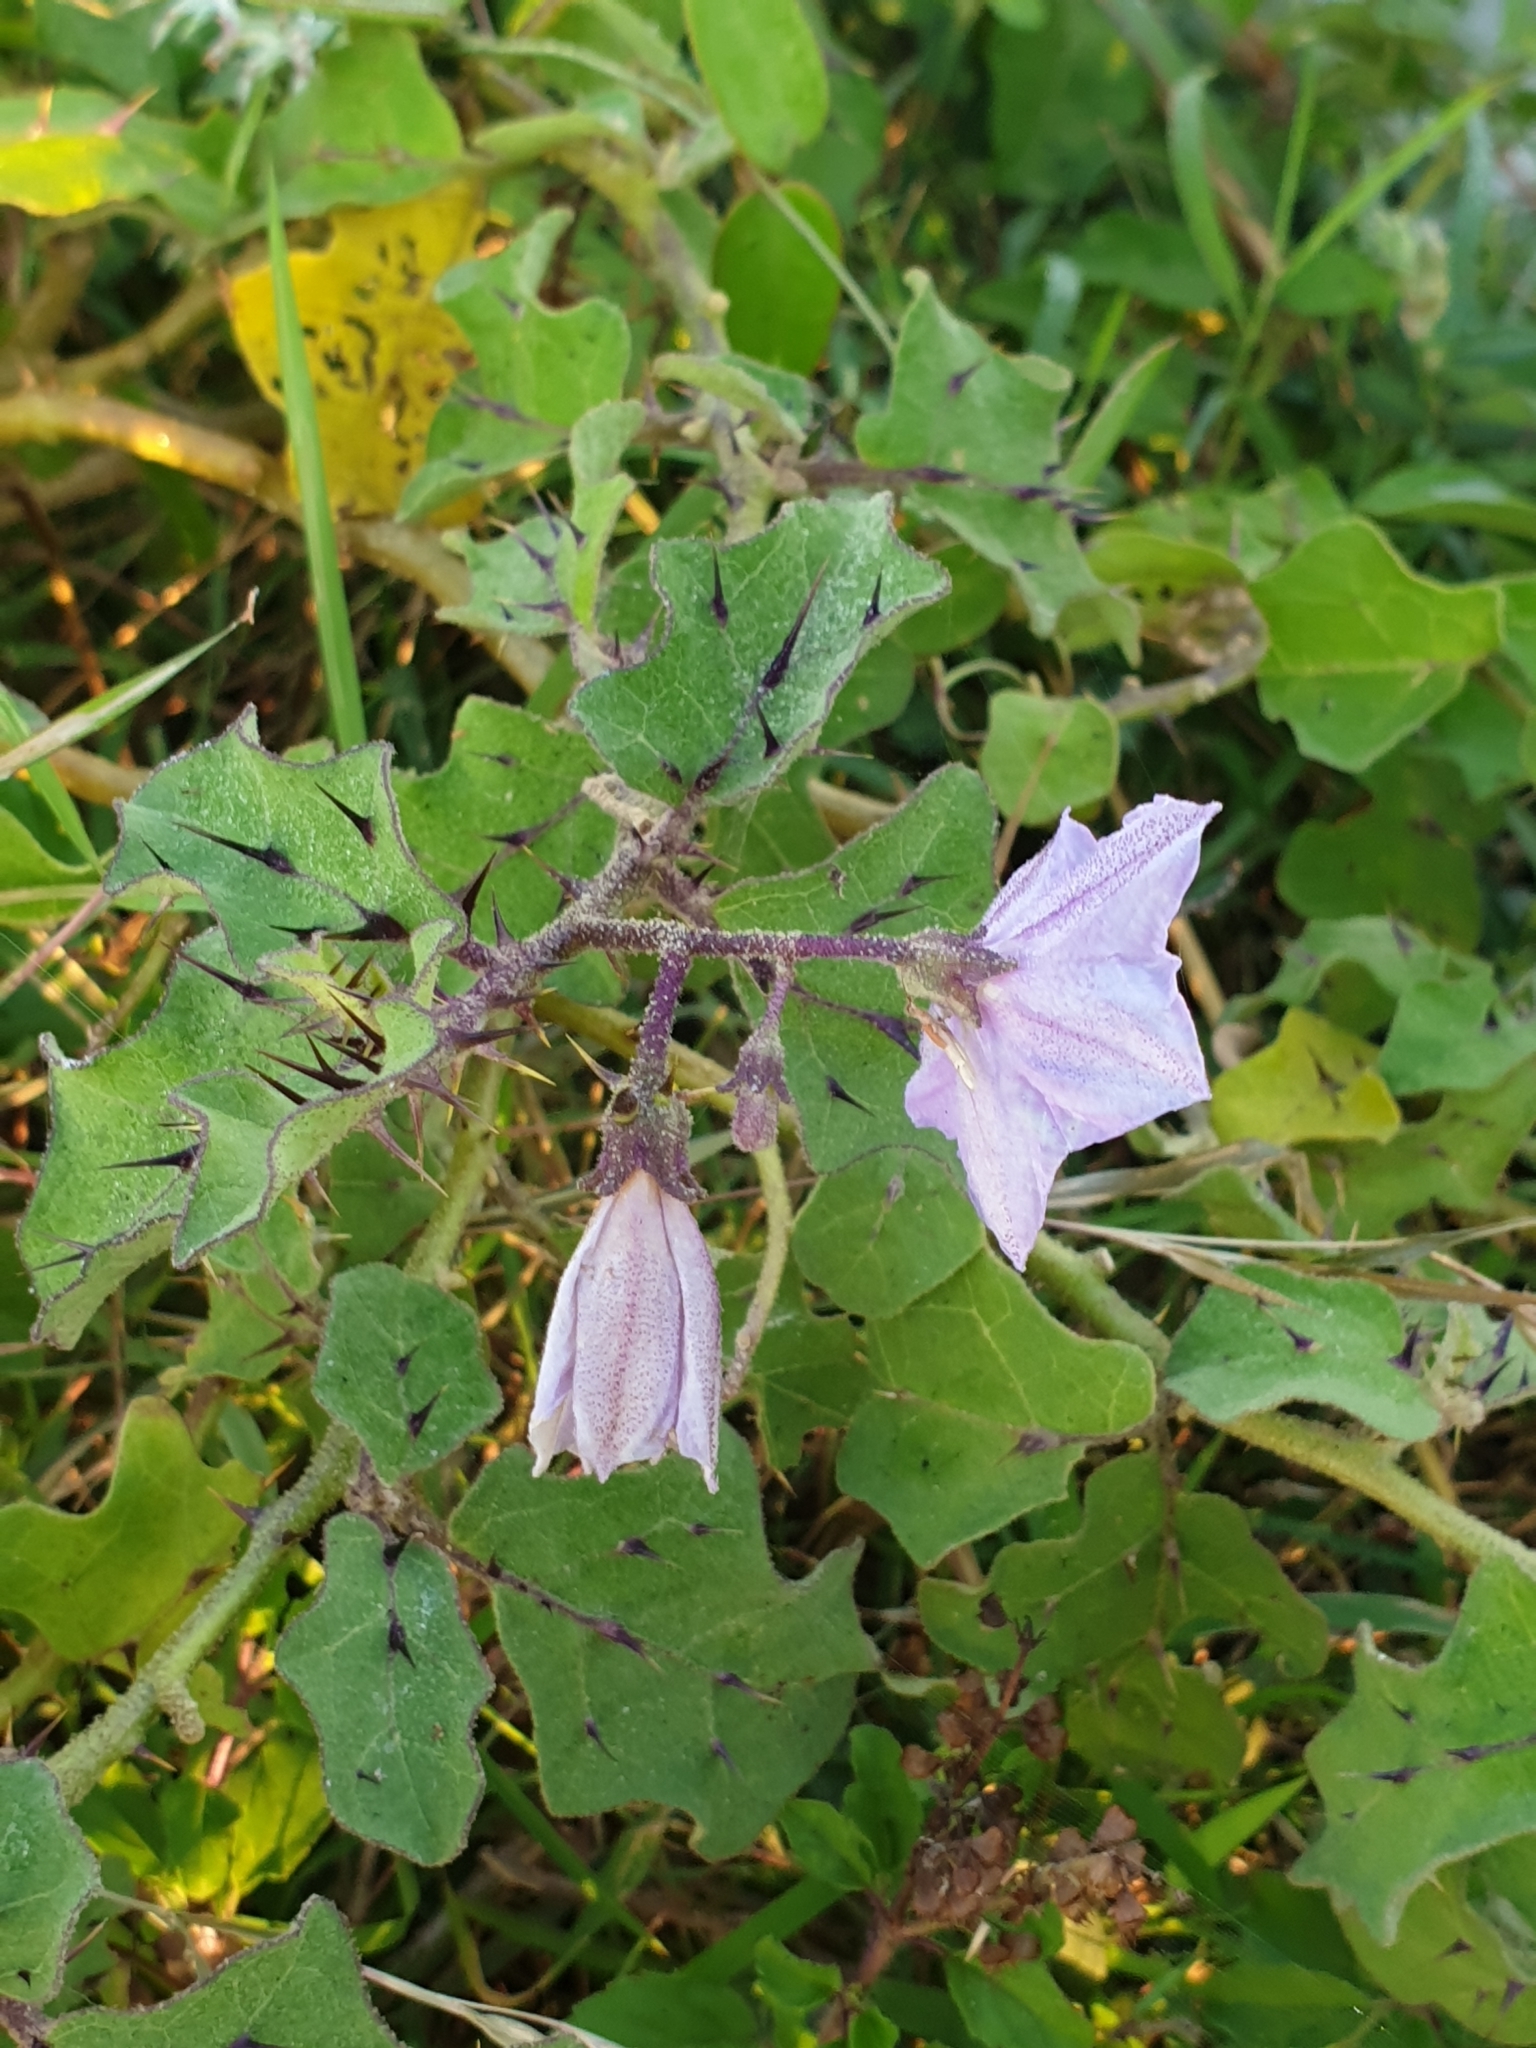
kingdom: Plantae
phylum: Tracheophyta
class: Magnoliopsida
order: Solanales
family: Solanaceae
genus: Solanum
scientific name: Solanum insanum
